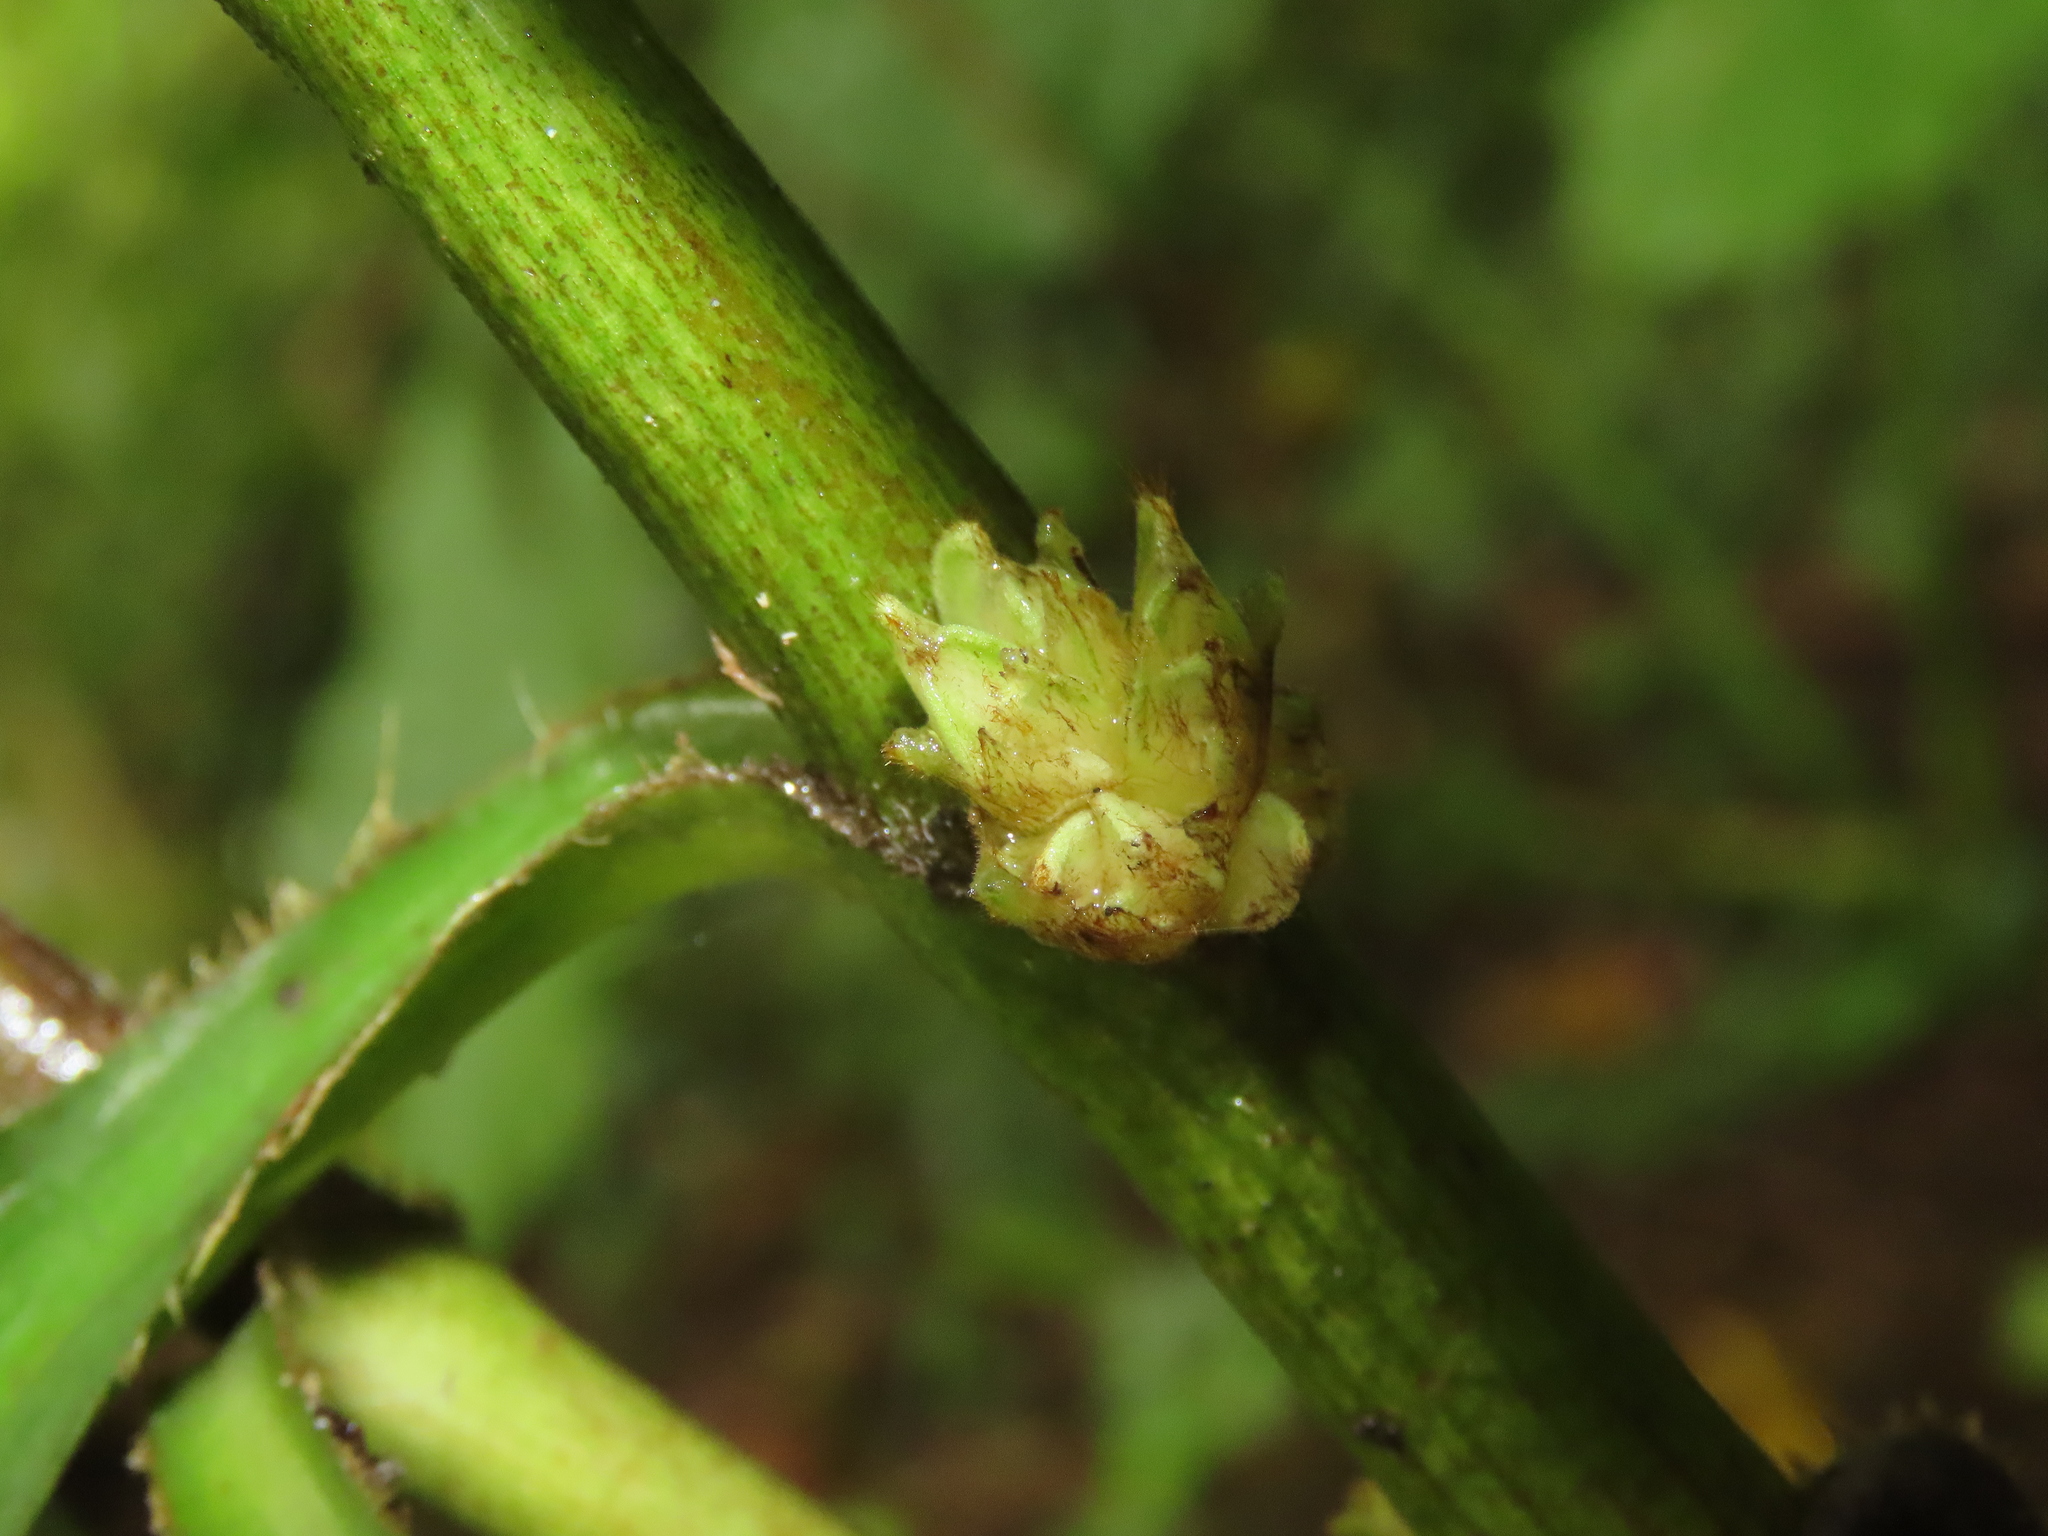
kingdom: Plantae
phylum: Tracheophyta
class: Liliopsida
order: Commelinales
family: Commelinaceae
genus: Amischotolype
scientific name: Amischotolype glabrata
